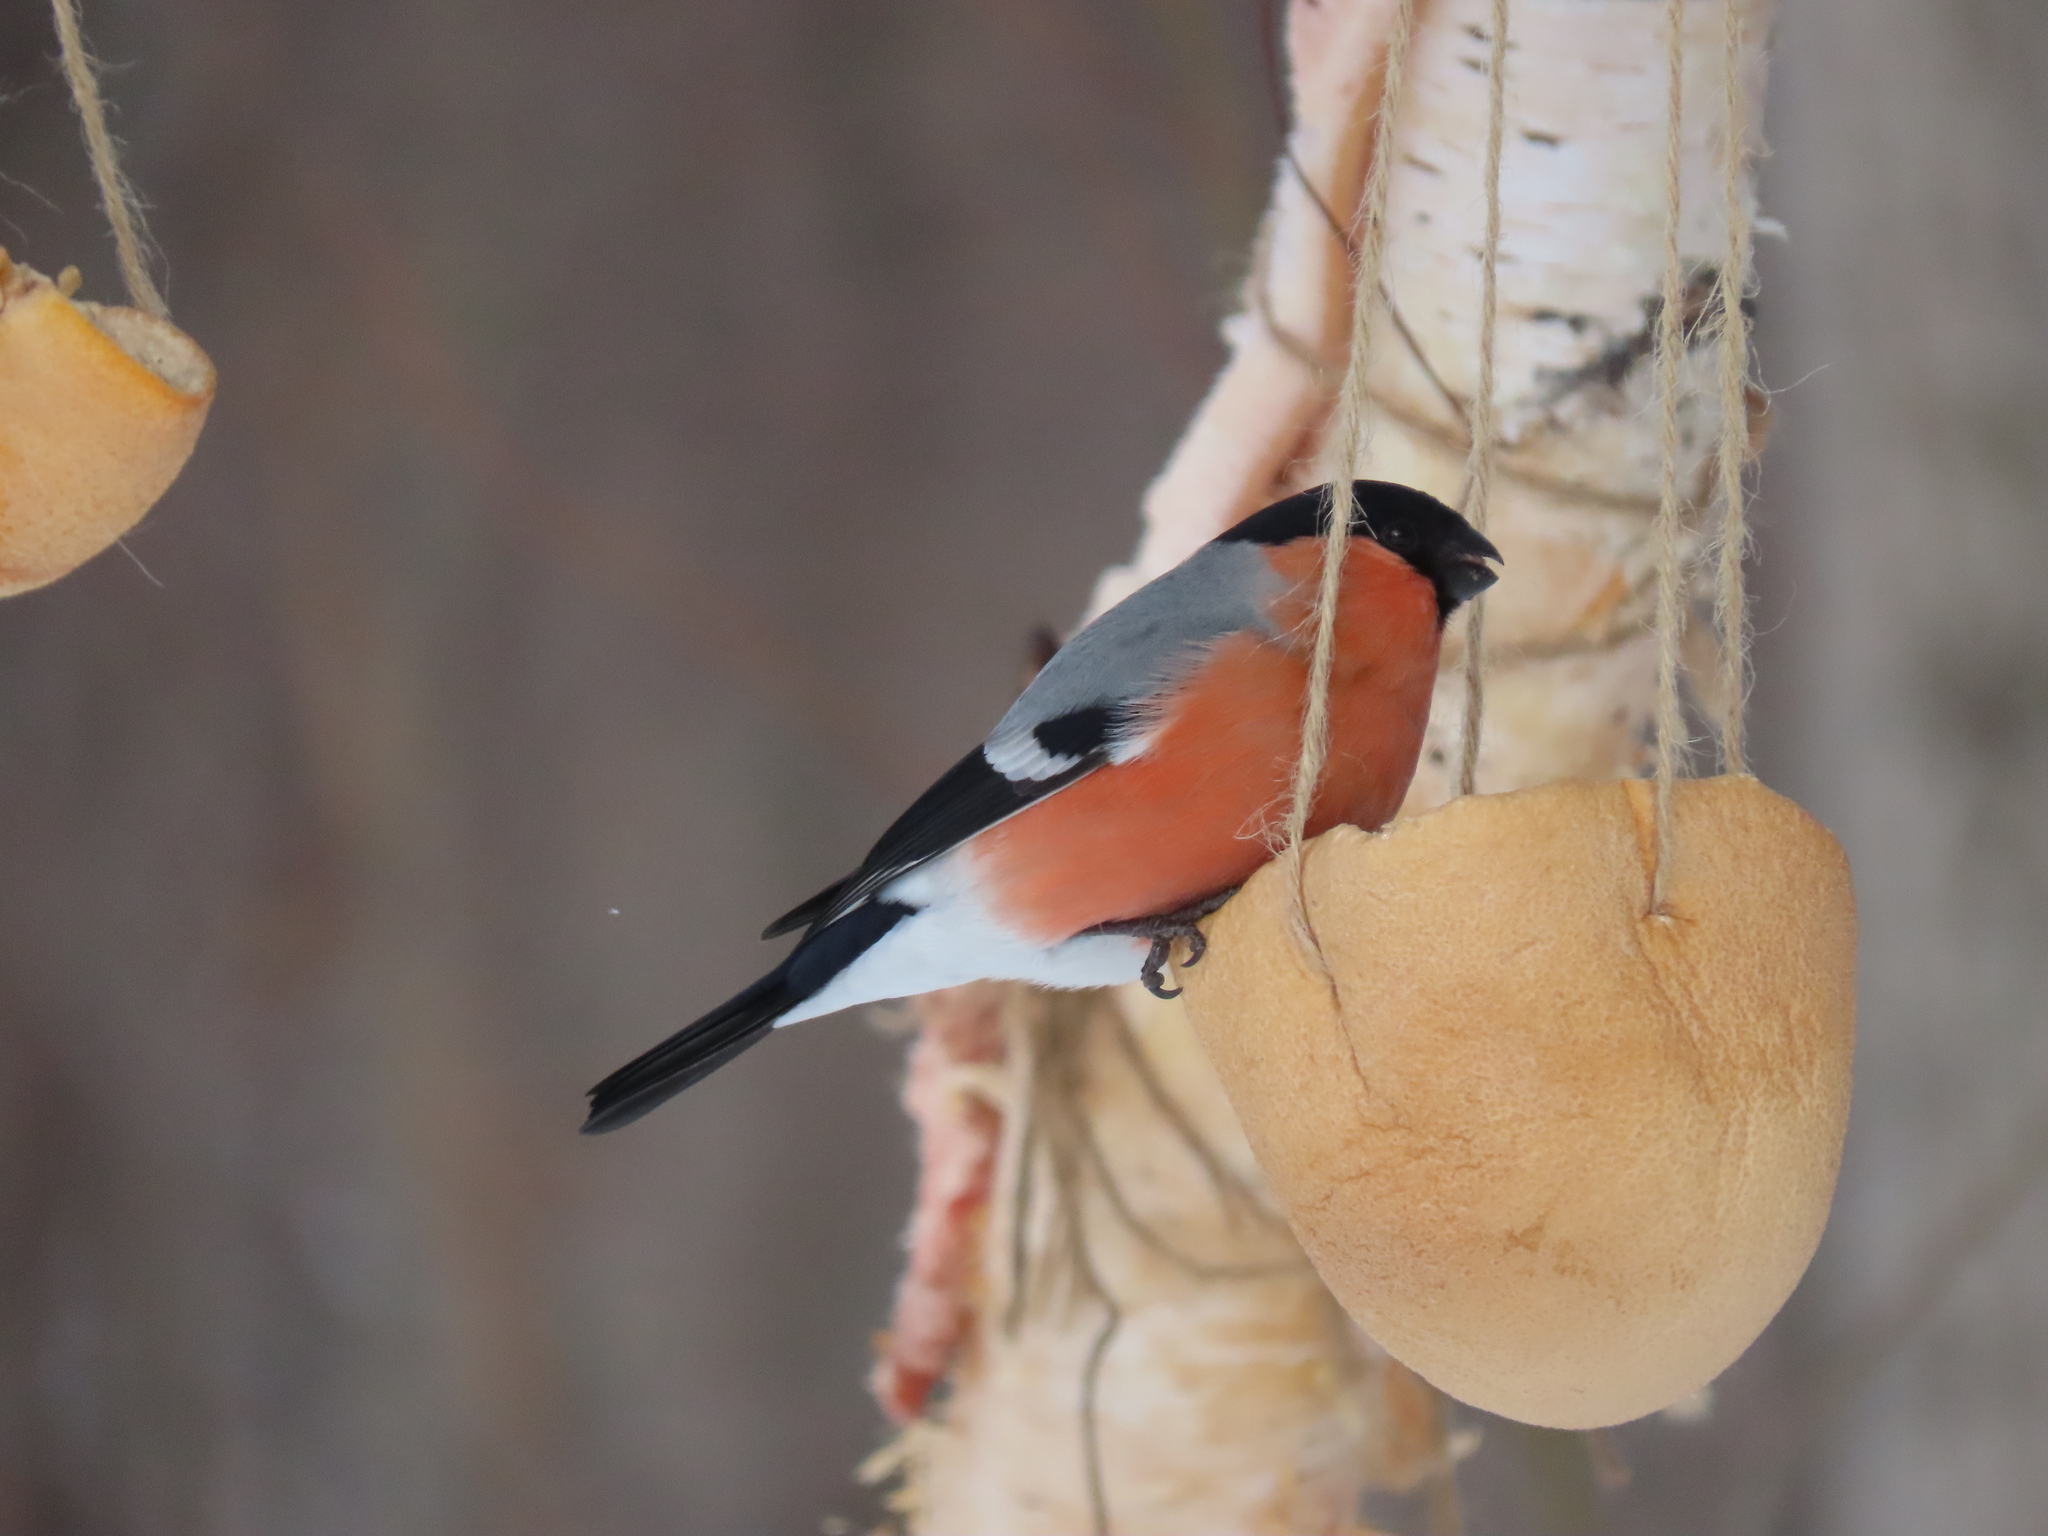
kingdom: Animalia
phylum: Chordata
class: Aves
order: Passeriformes
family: Fringillidae
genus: Pyrrhula
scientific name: Pyrrhula pyrrhula
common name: Eurasian bullfinch
